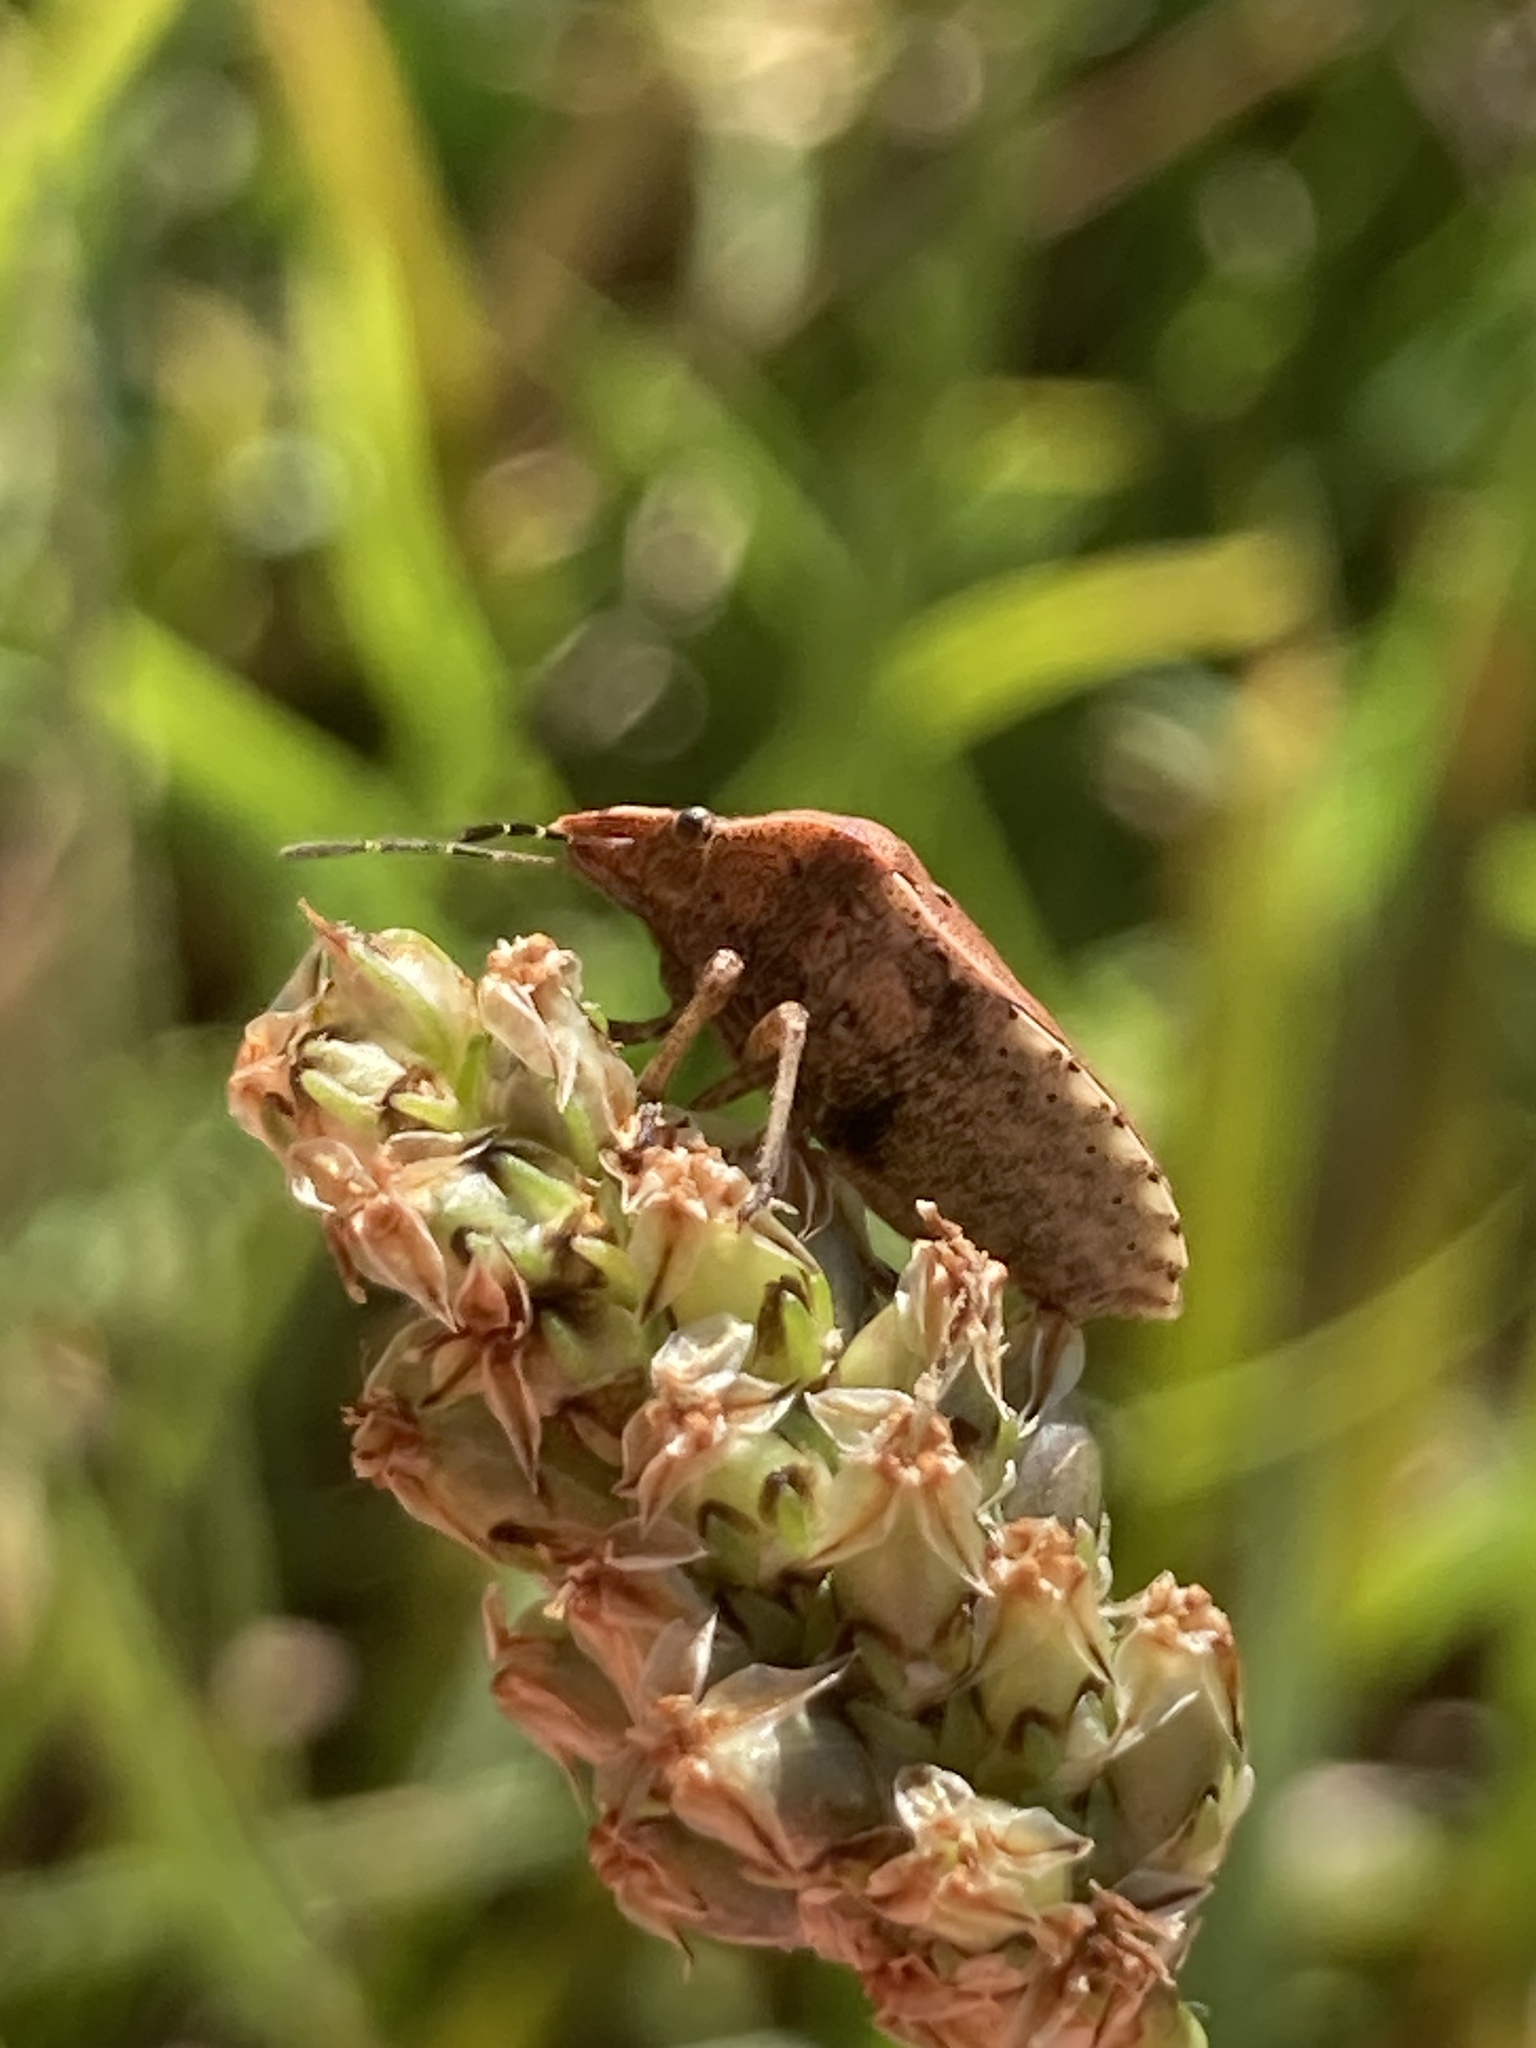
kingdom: Animalia
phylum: Arthropoda
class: Insecta
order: Hemiptera
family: Pentatomidae
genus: Dictyotus
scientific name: Dictyotus caenosus
